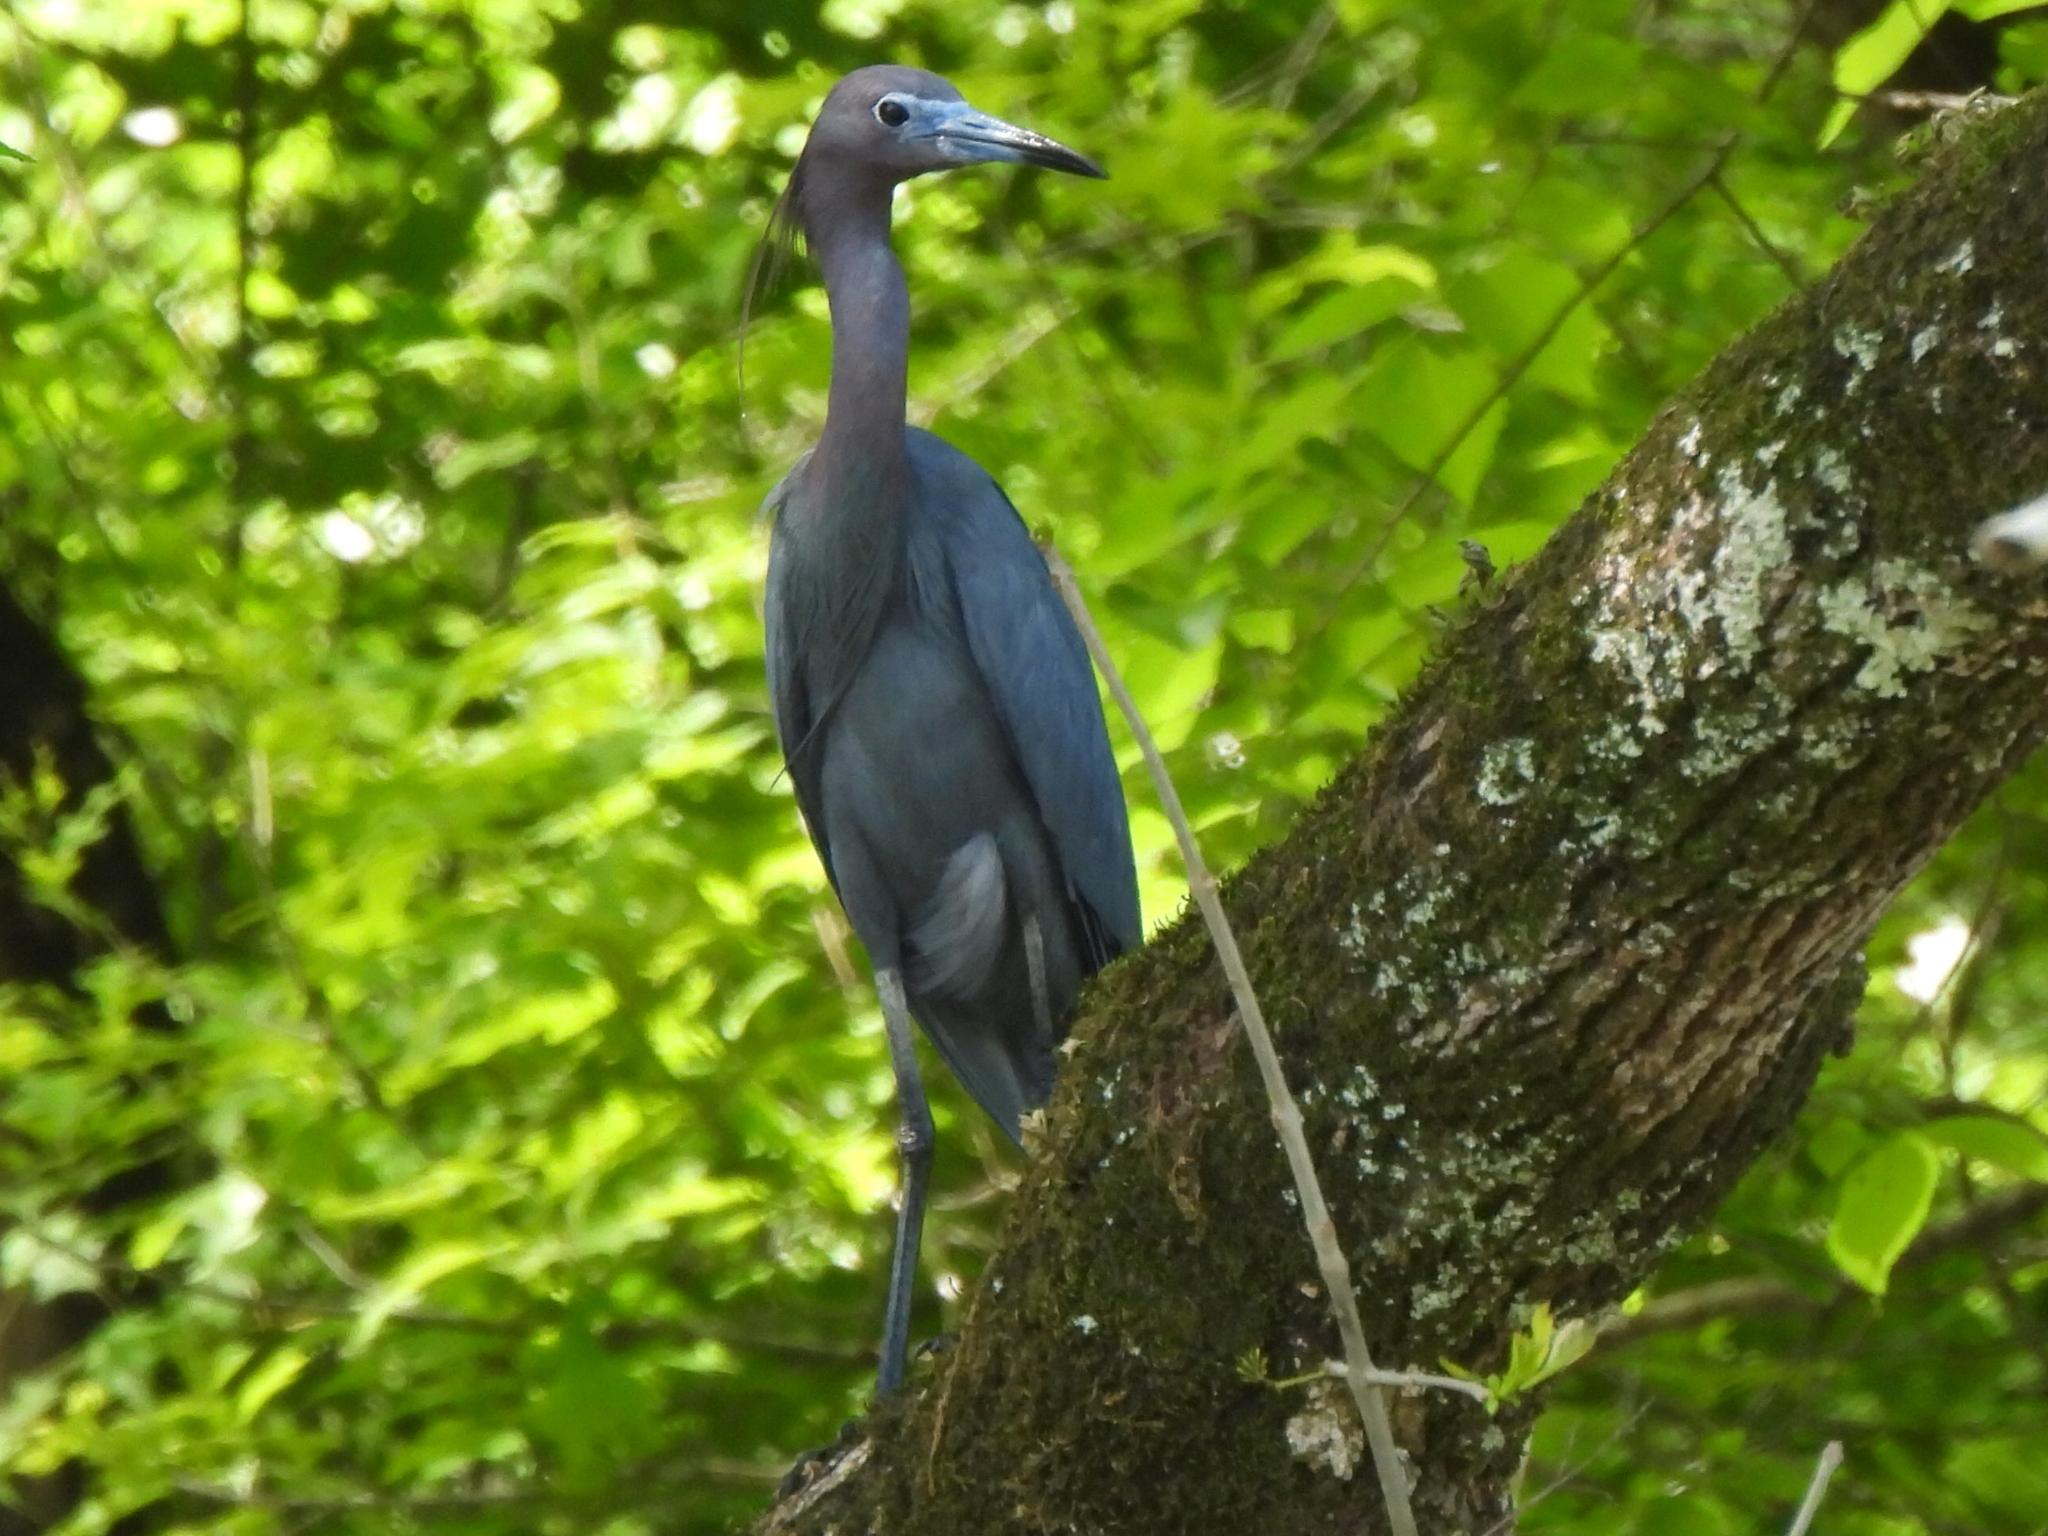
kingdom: Animalia
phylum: Chordata
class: Aves
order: Pelecaniformes
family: Ardeidae
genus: Egretta
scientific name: Egretta caerulea
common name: Little blue heron
